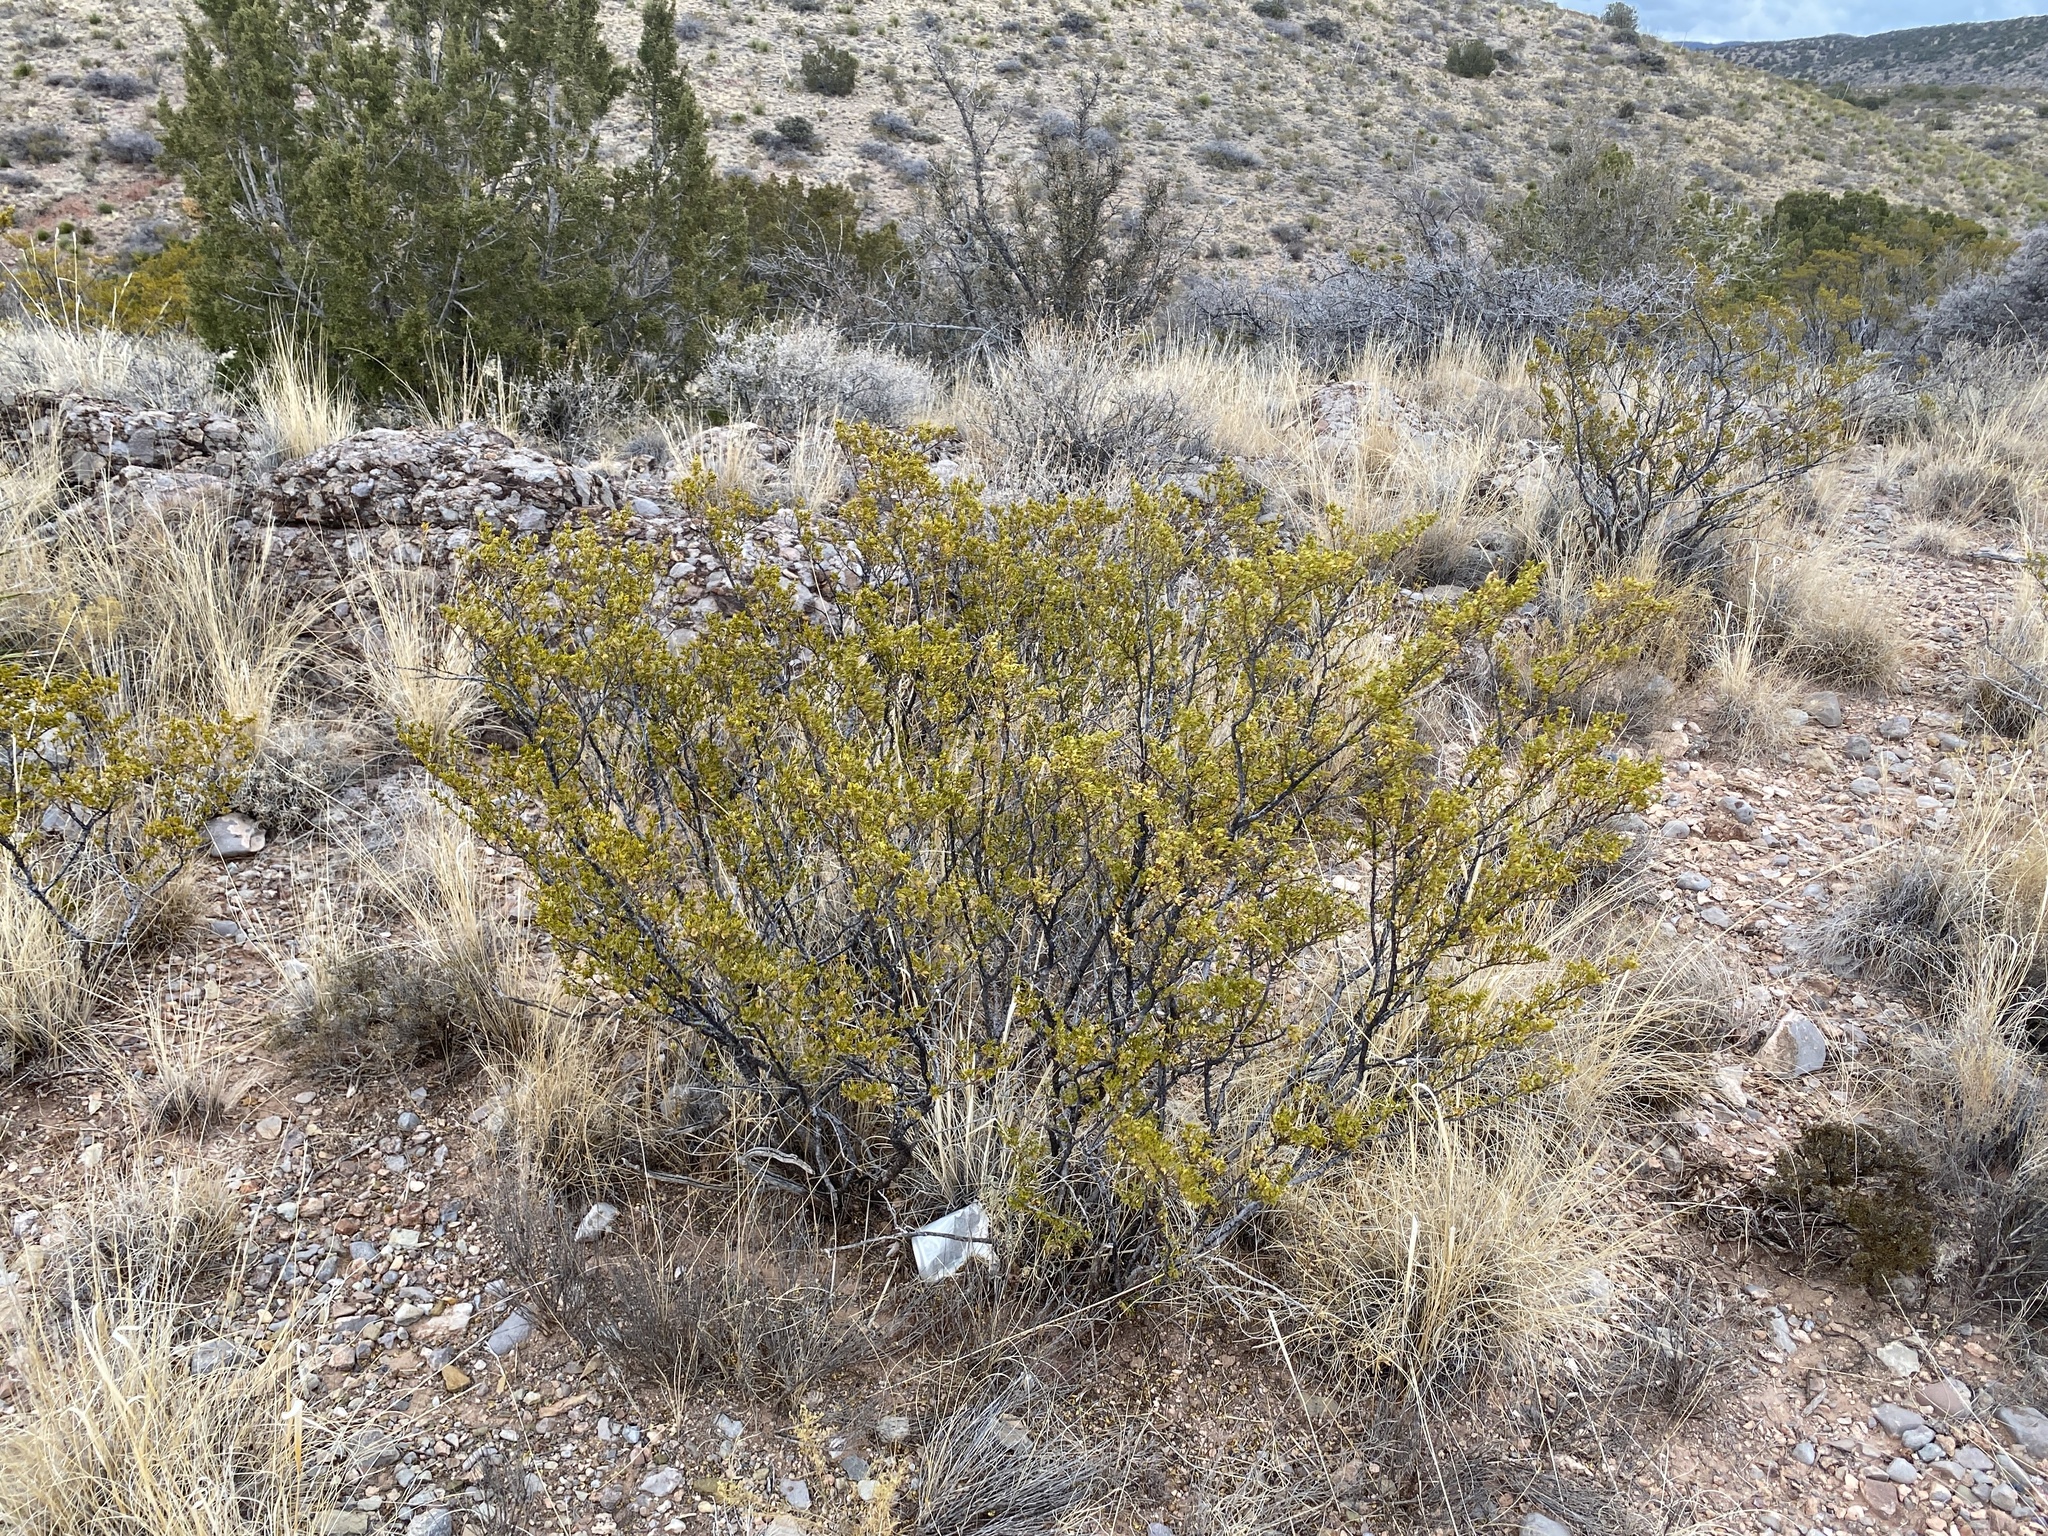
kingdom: Plantae
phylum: Tracheophyta
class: Magnoliopsida
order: Zygophyllales
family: Zygophyllaceae
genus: Larrea
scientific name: Larrea tridentata
